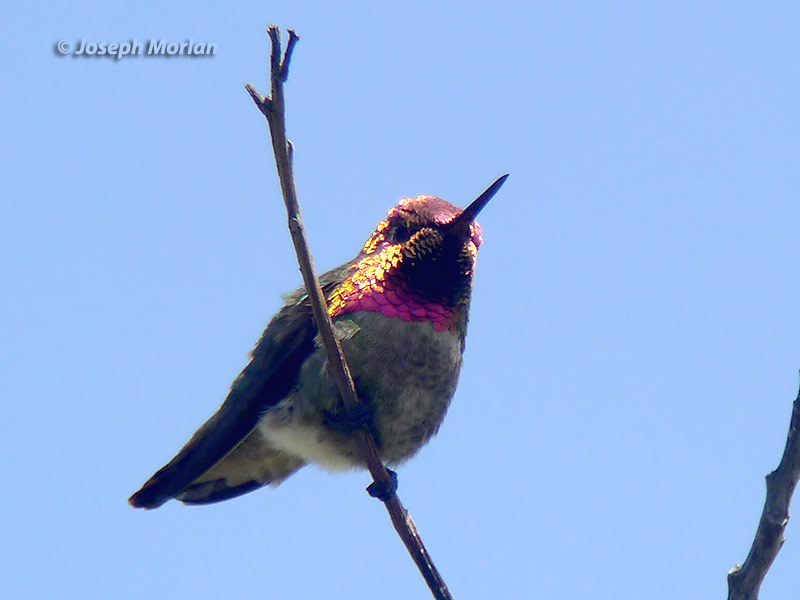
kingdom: Animalia
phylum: Chordata
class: Aves
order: Apodiformes
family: Trochilidae
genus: Calypte
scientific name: Calypte anna
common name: Anna's hummingbird
